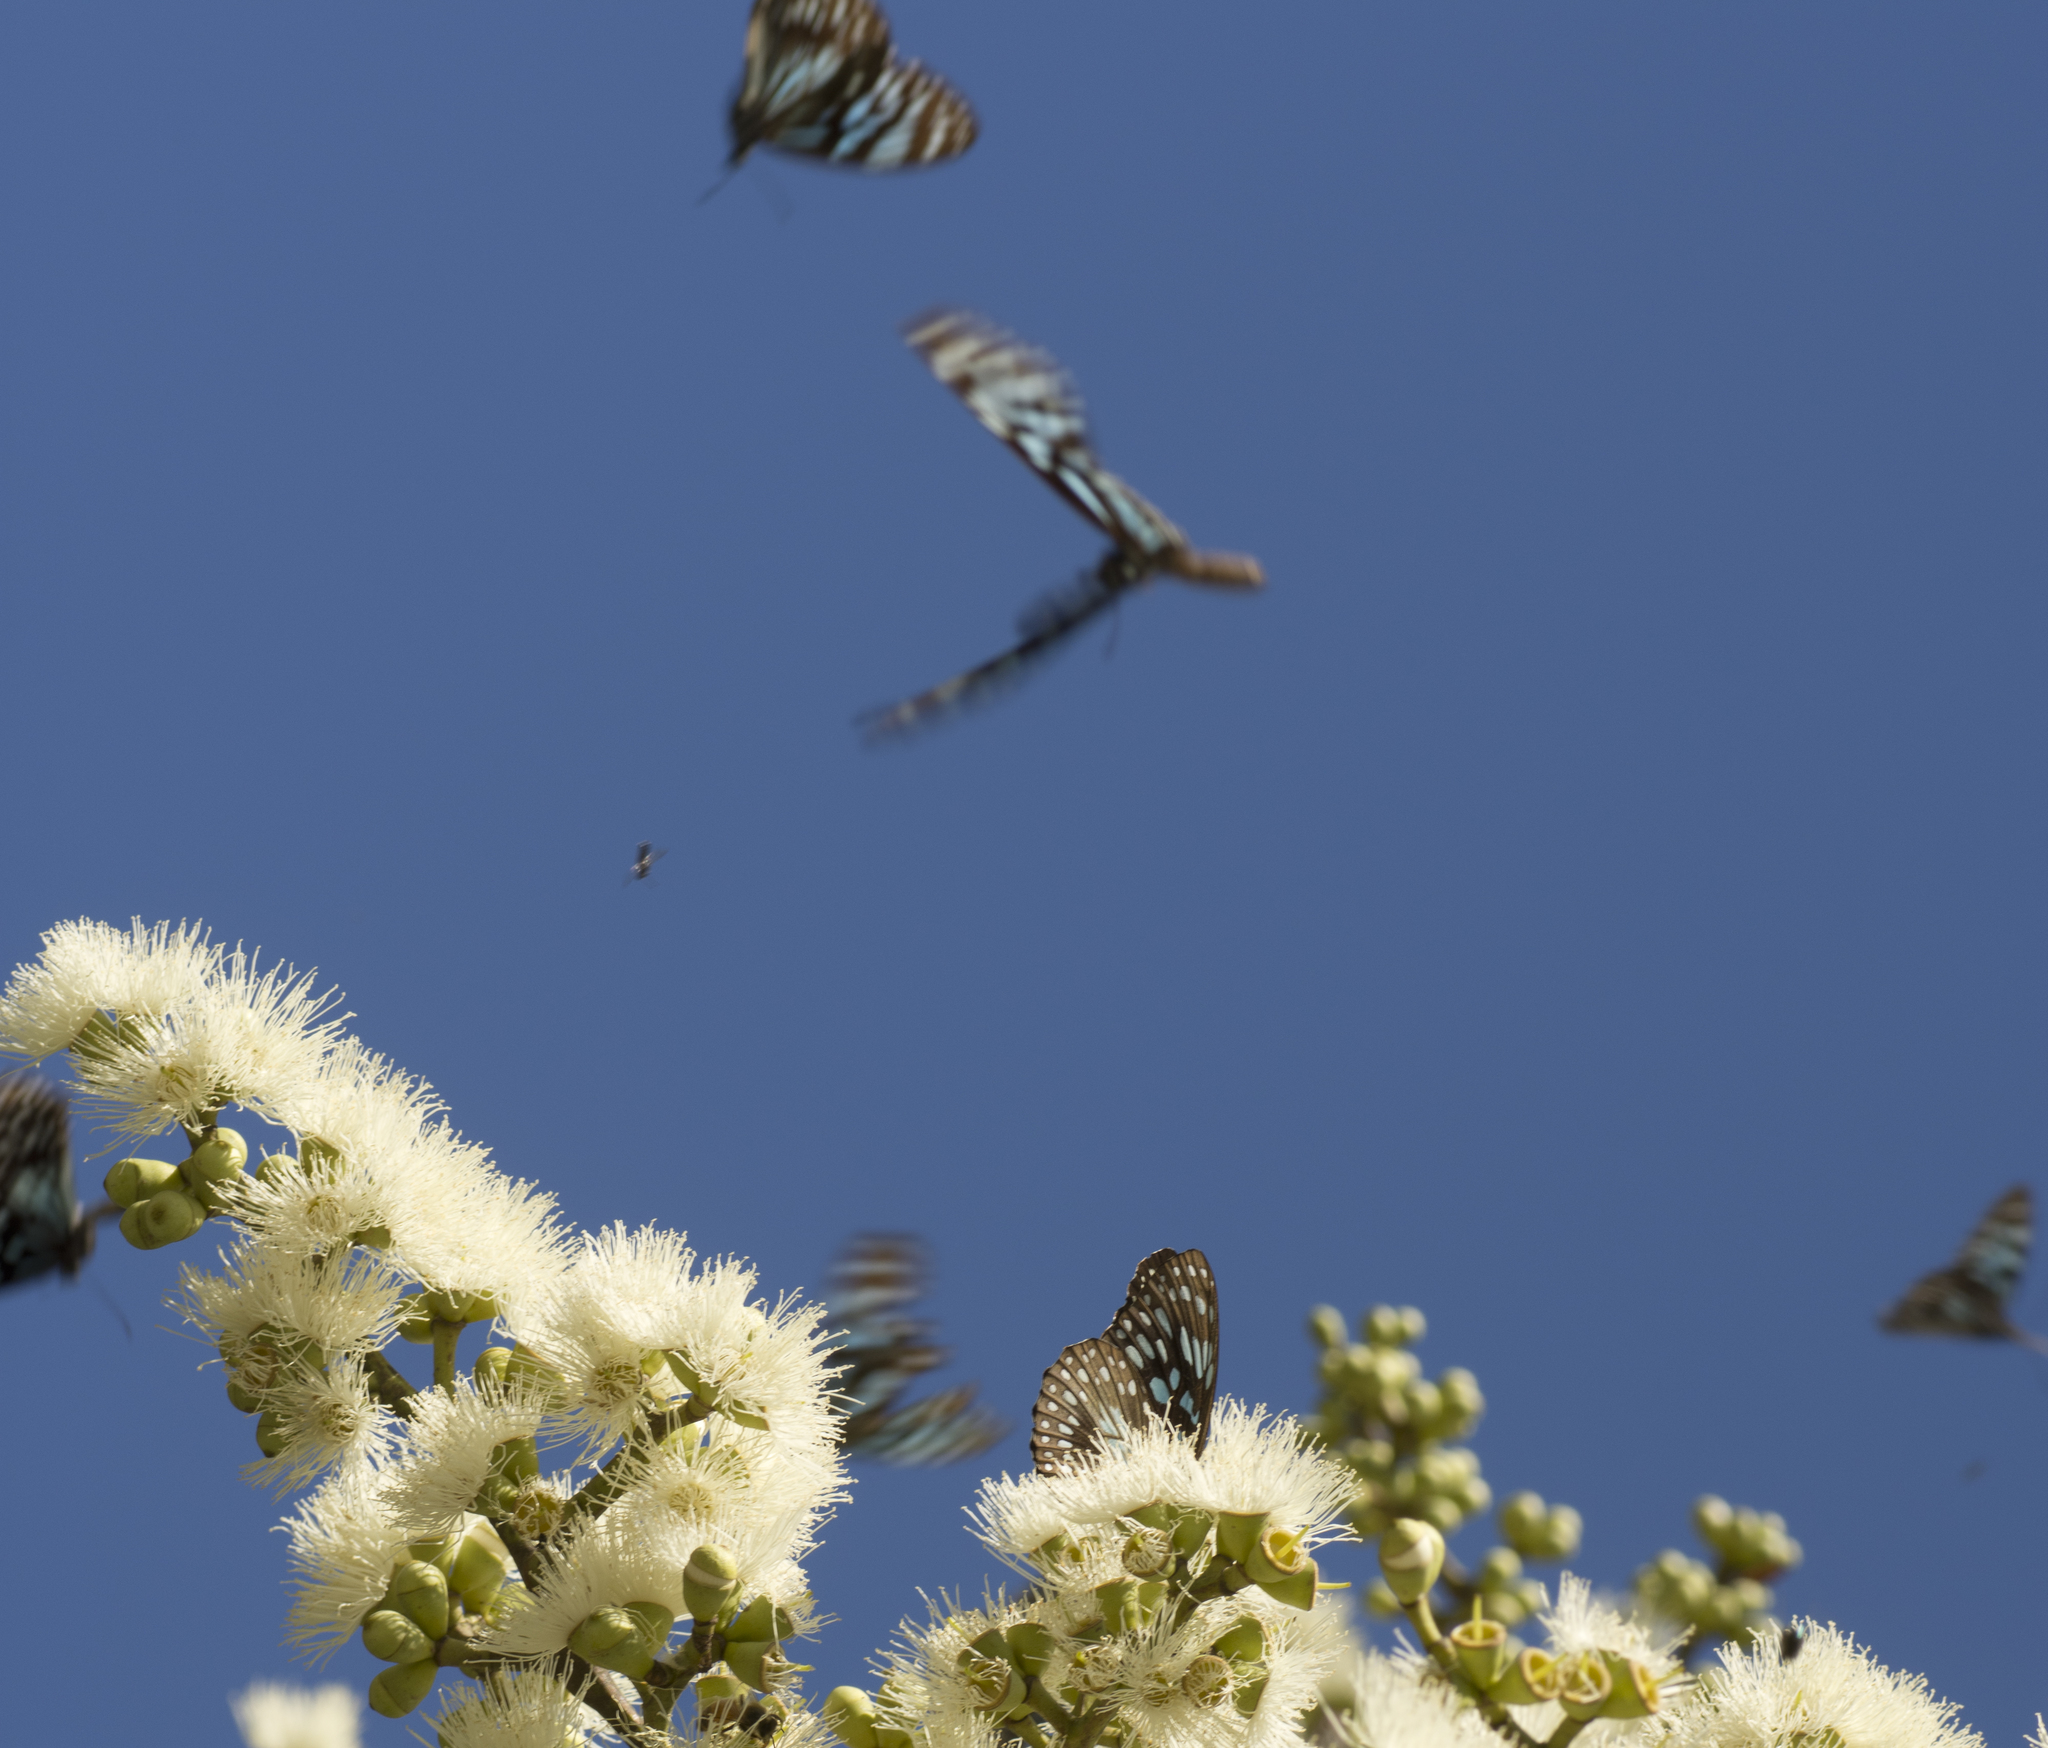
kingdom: Animalia
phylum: Arthropoda
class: Insecta
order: Lepidoptera
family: Nymphalidae
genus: Tirumala
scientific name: Tirumala hamata
